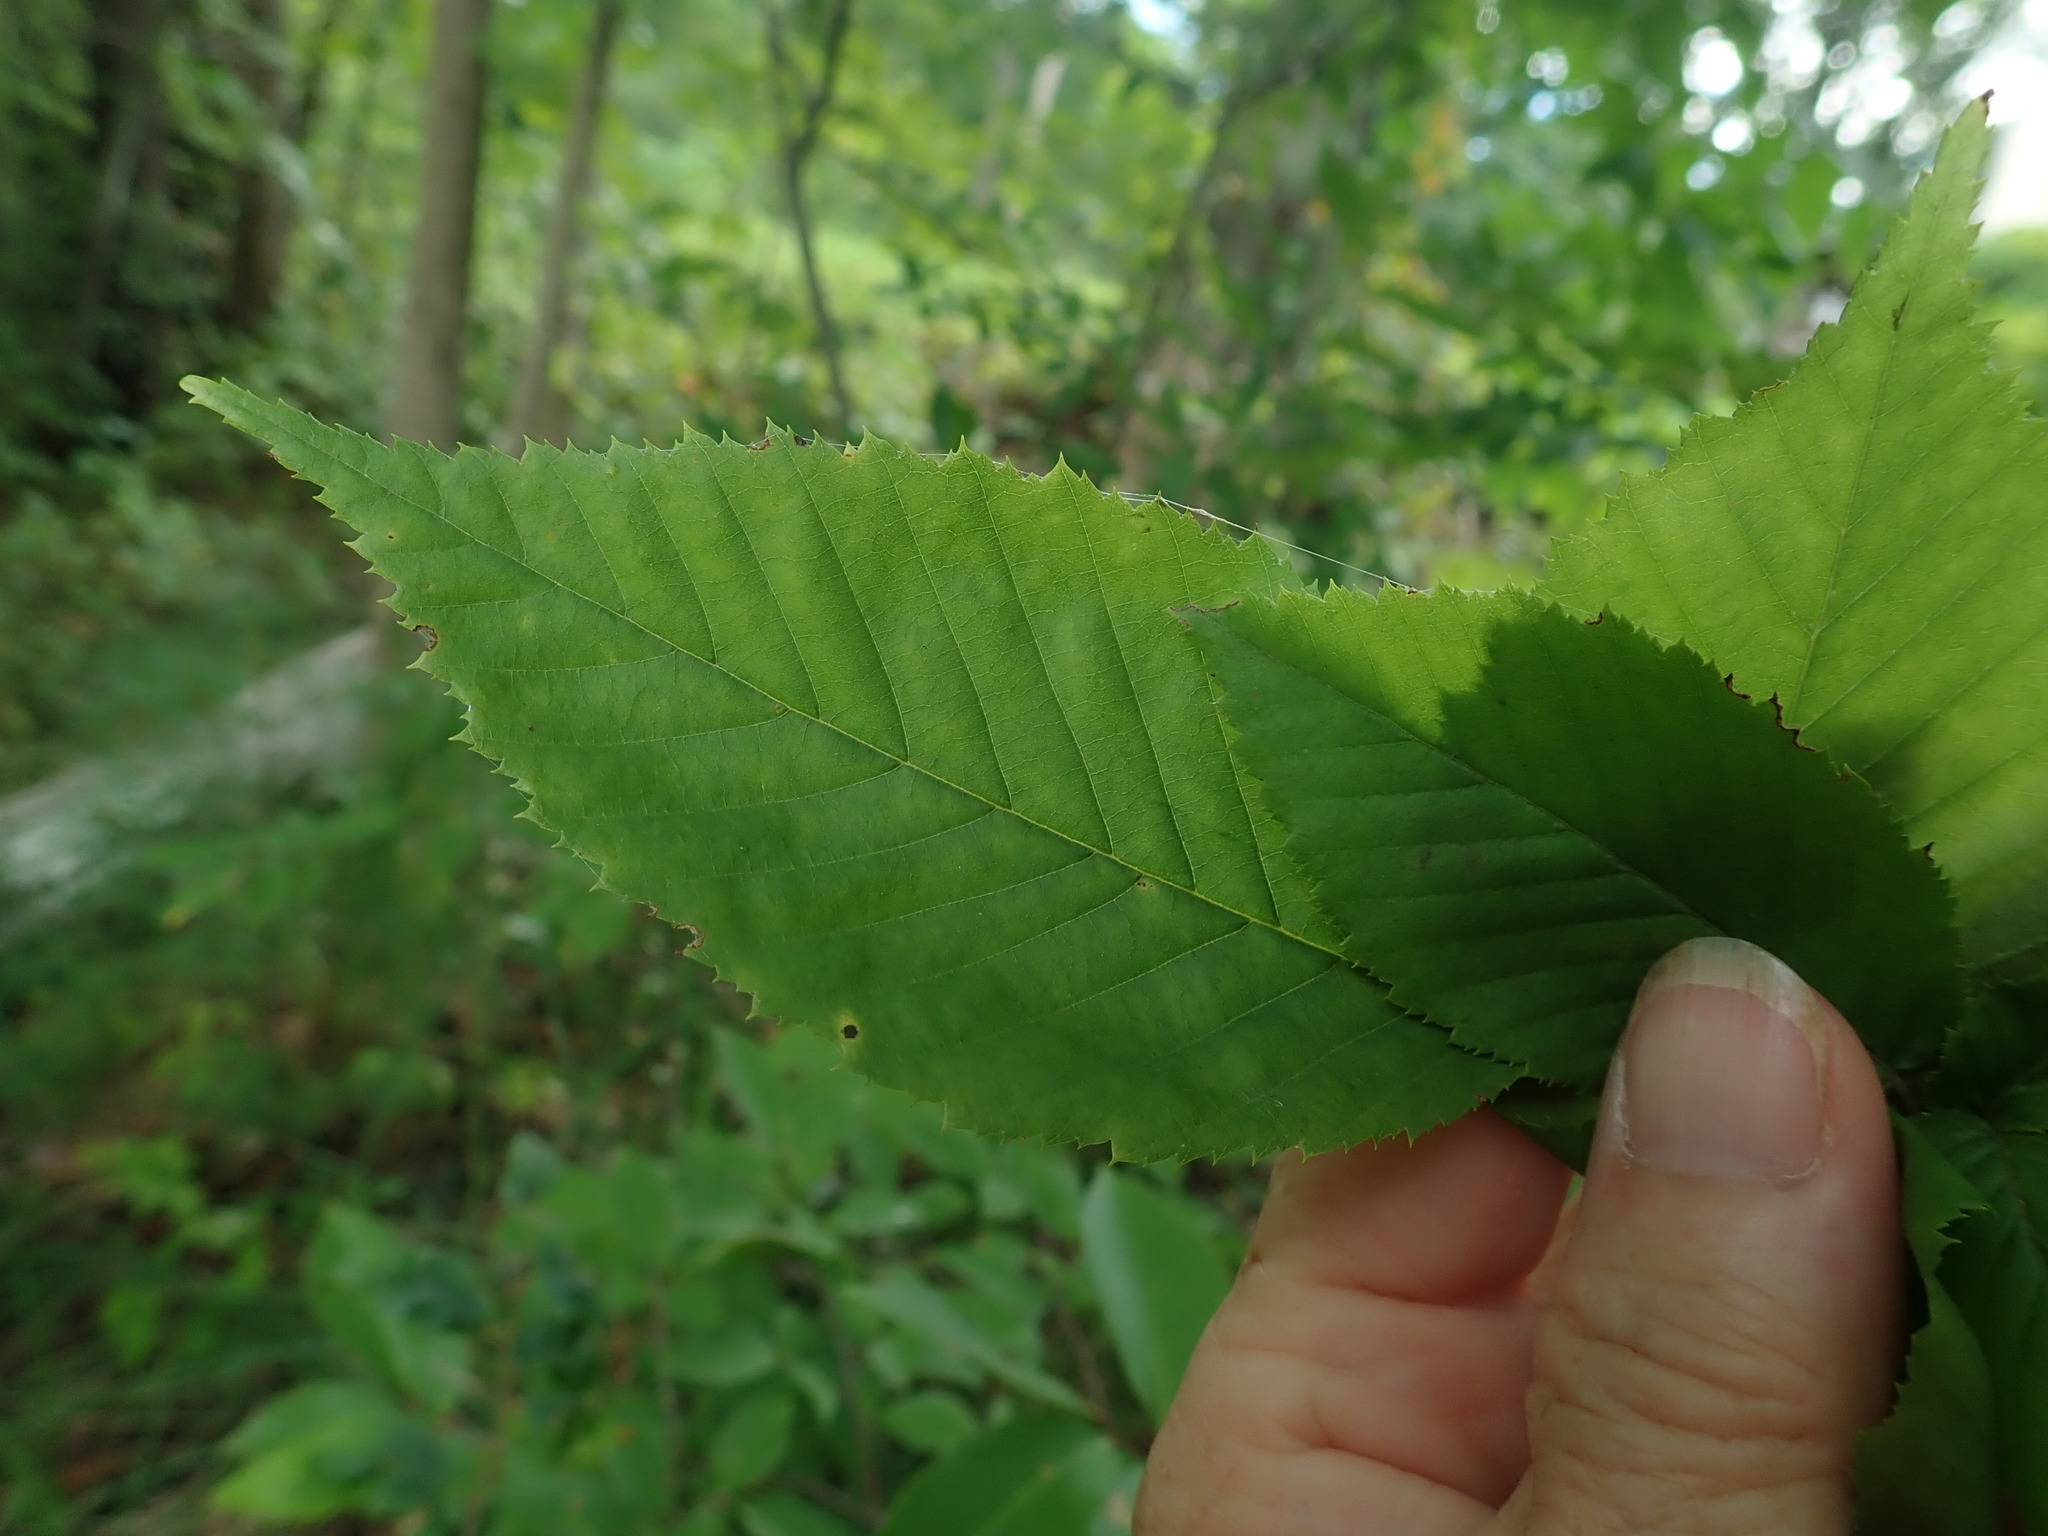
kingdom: Plantae
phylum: Tracheophyta
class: Magnoliopsida
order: Fagales
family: Betulaceae
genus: Carpinus
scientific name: Carpinus caroliniana
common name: American hornbeam
